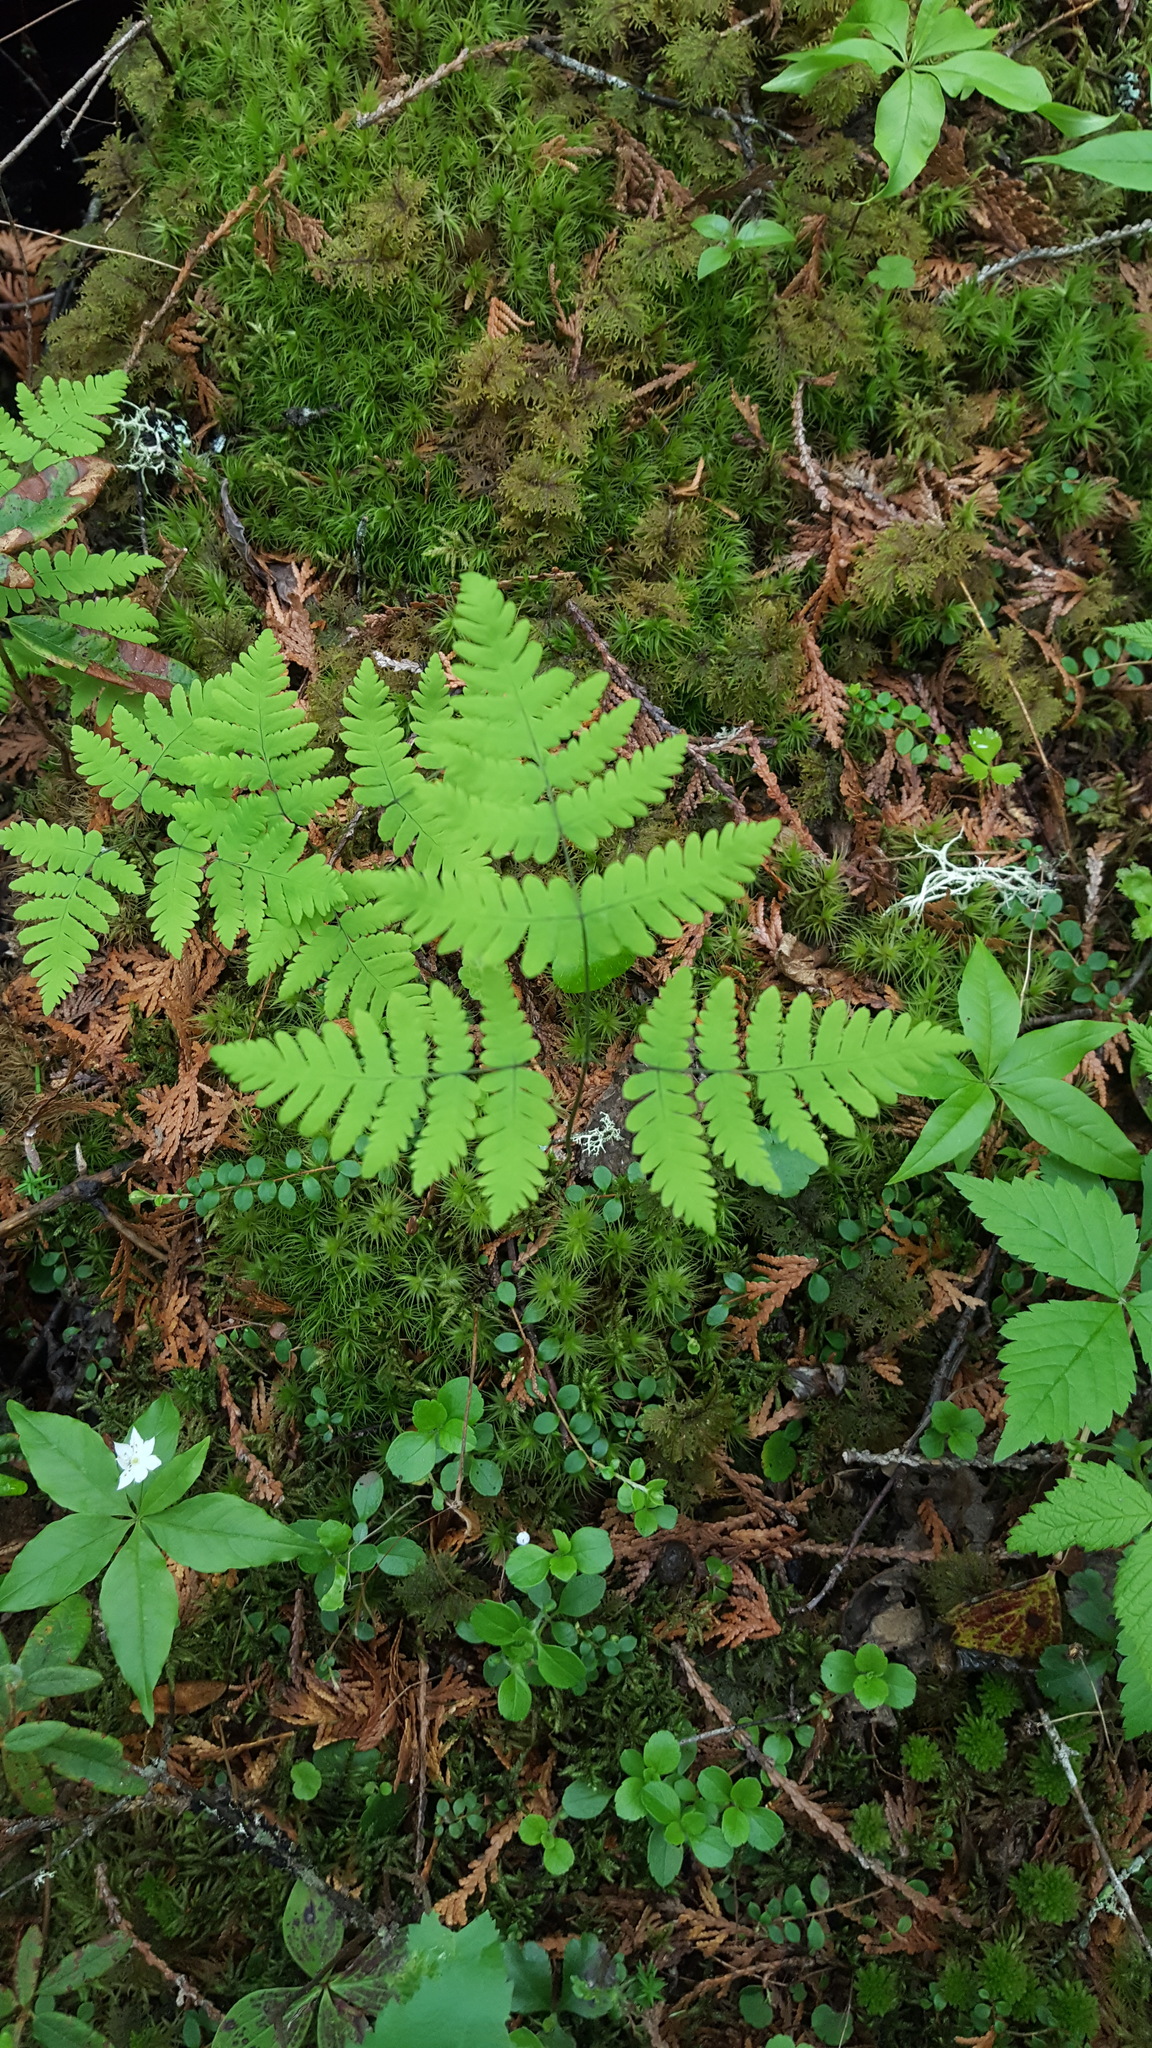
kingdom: Plantae
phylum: Tracheophyta
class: Polypodiopsida
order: Polypodiales
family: Cystopteridaceae
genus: Gymnocarpium
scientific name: Gymnocarpium dryopteris
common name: Oak fern
